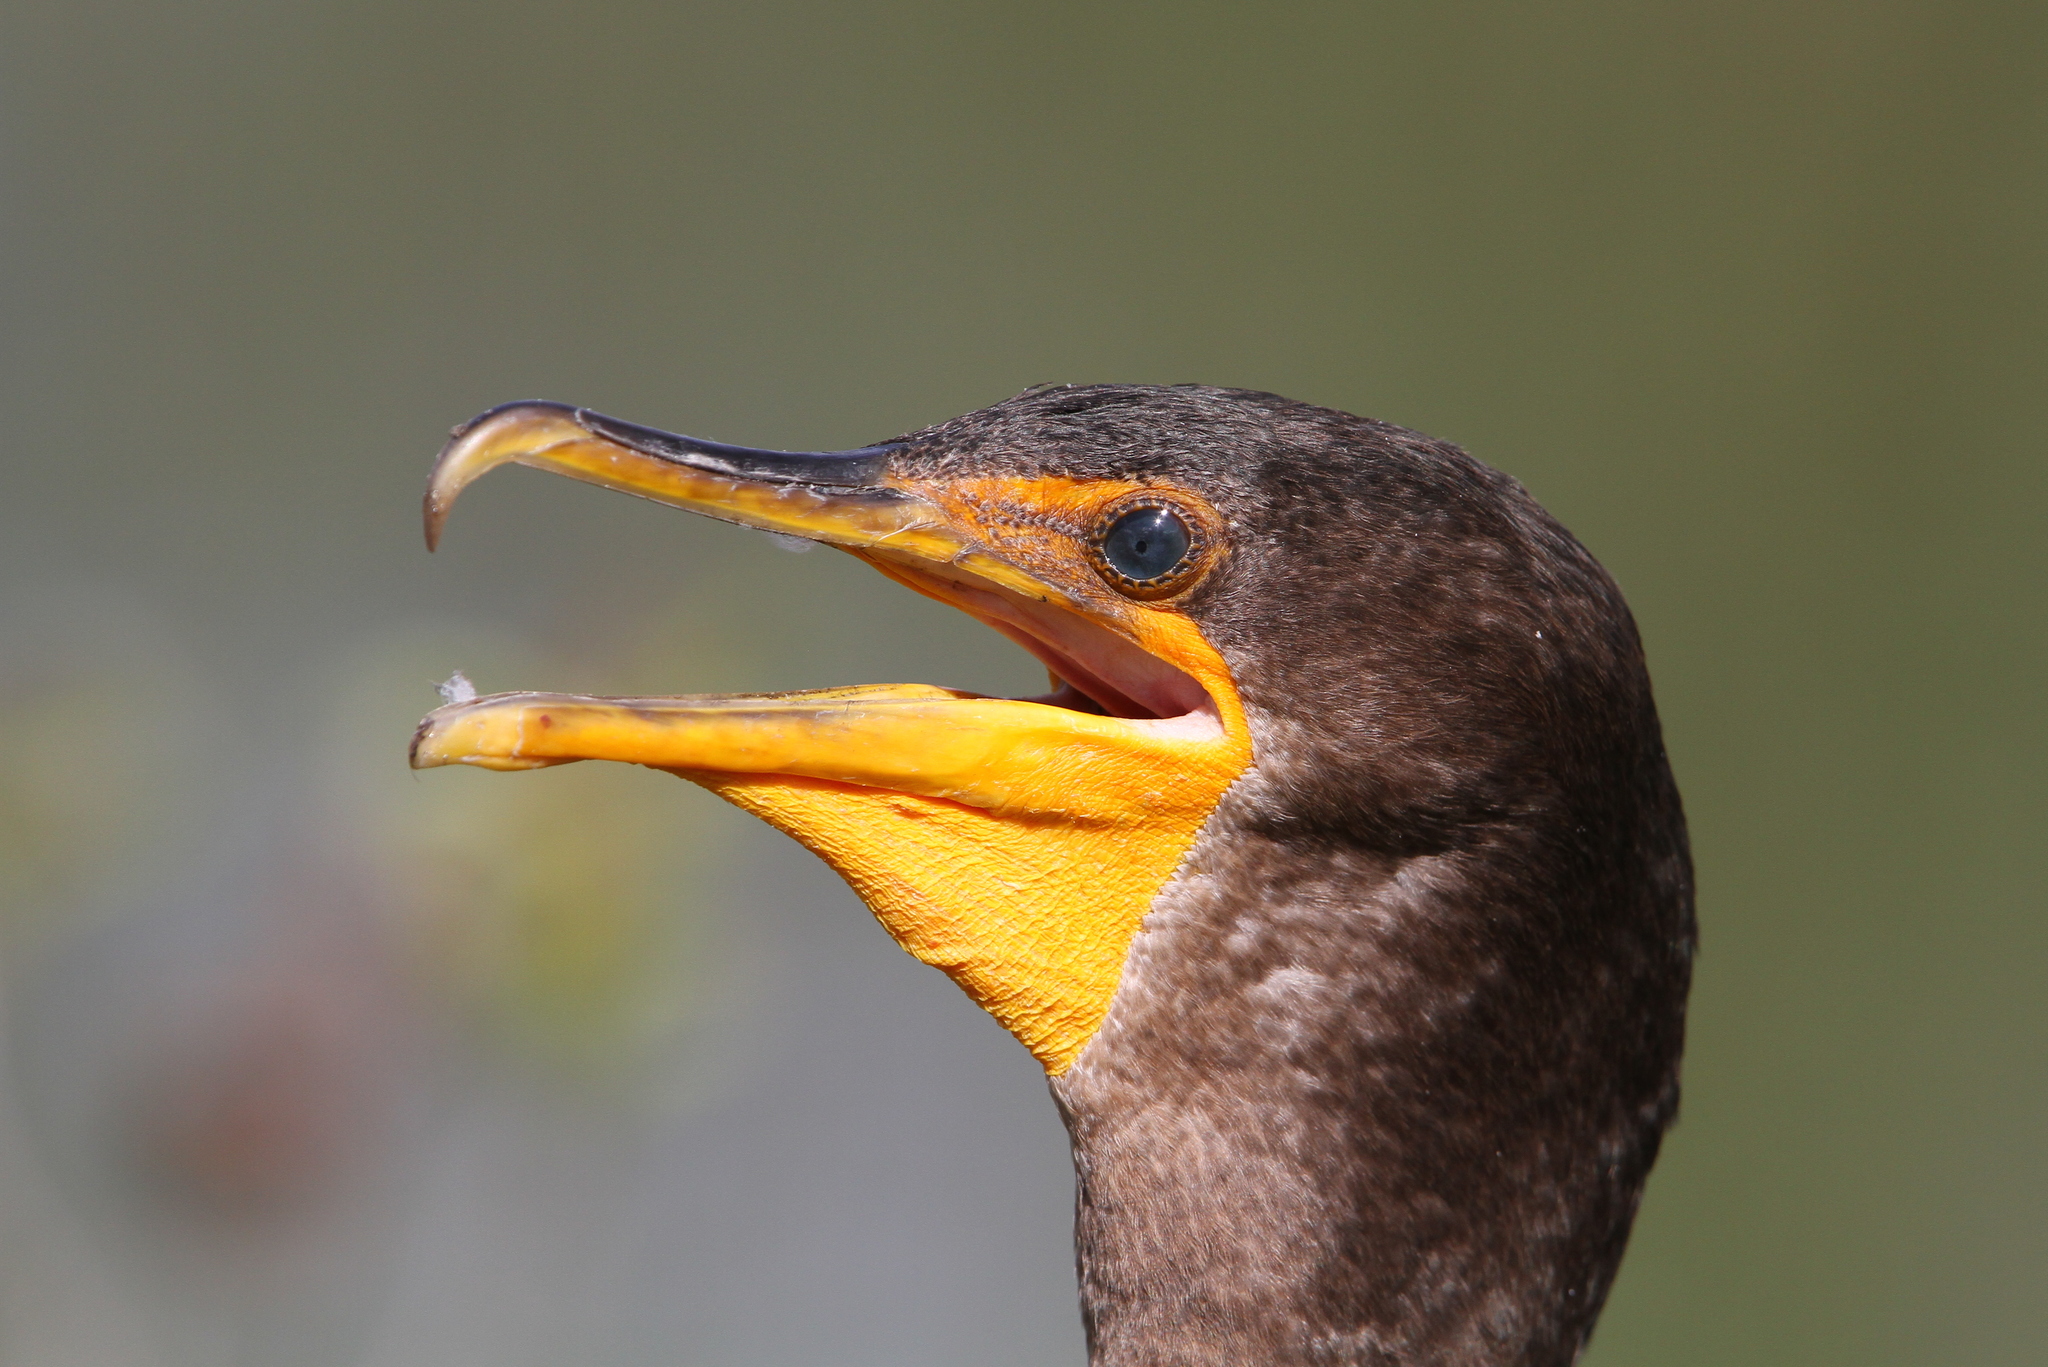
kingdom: Animalia
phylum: Chordata
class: Aves
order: Suliformes
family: Phalacrocoracidae
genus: Phalacrocorax
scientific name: Phalacrocorax auritus
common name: Double-crested cormorant
